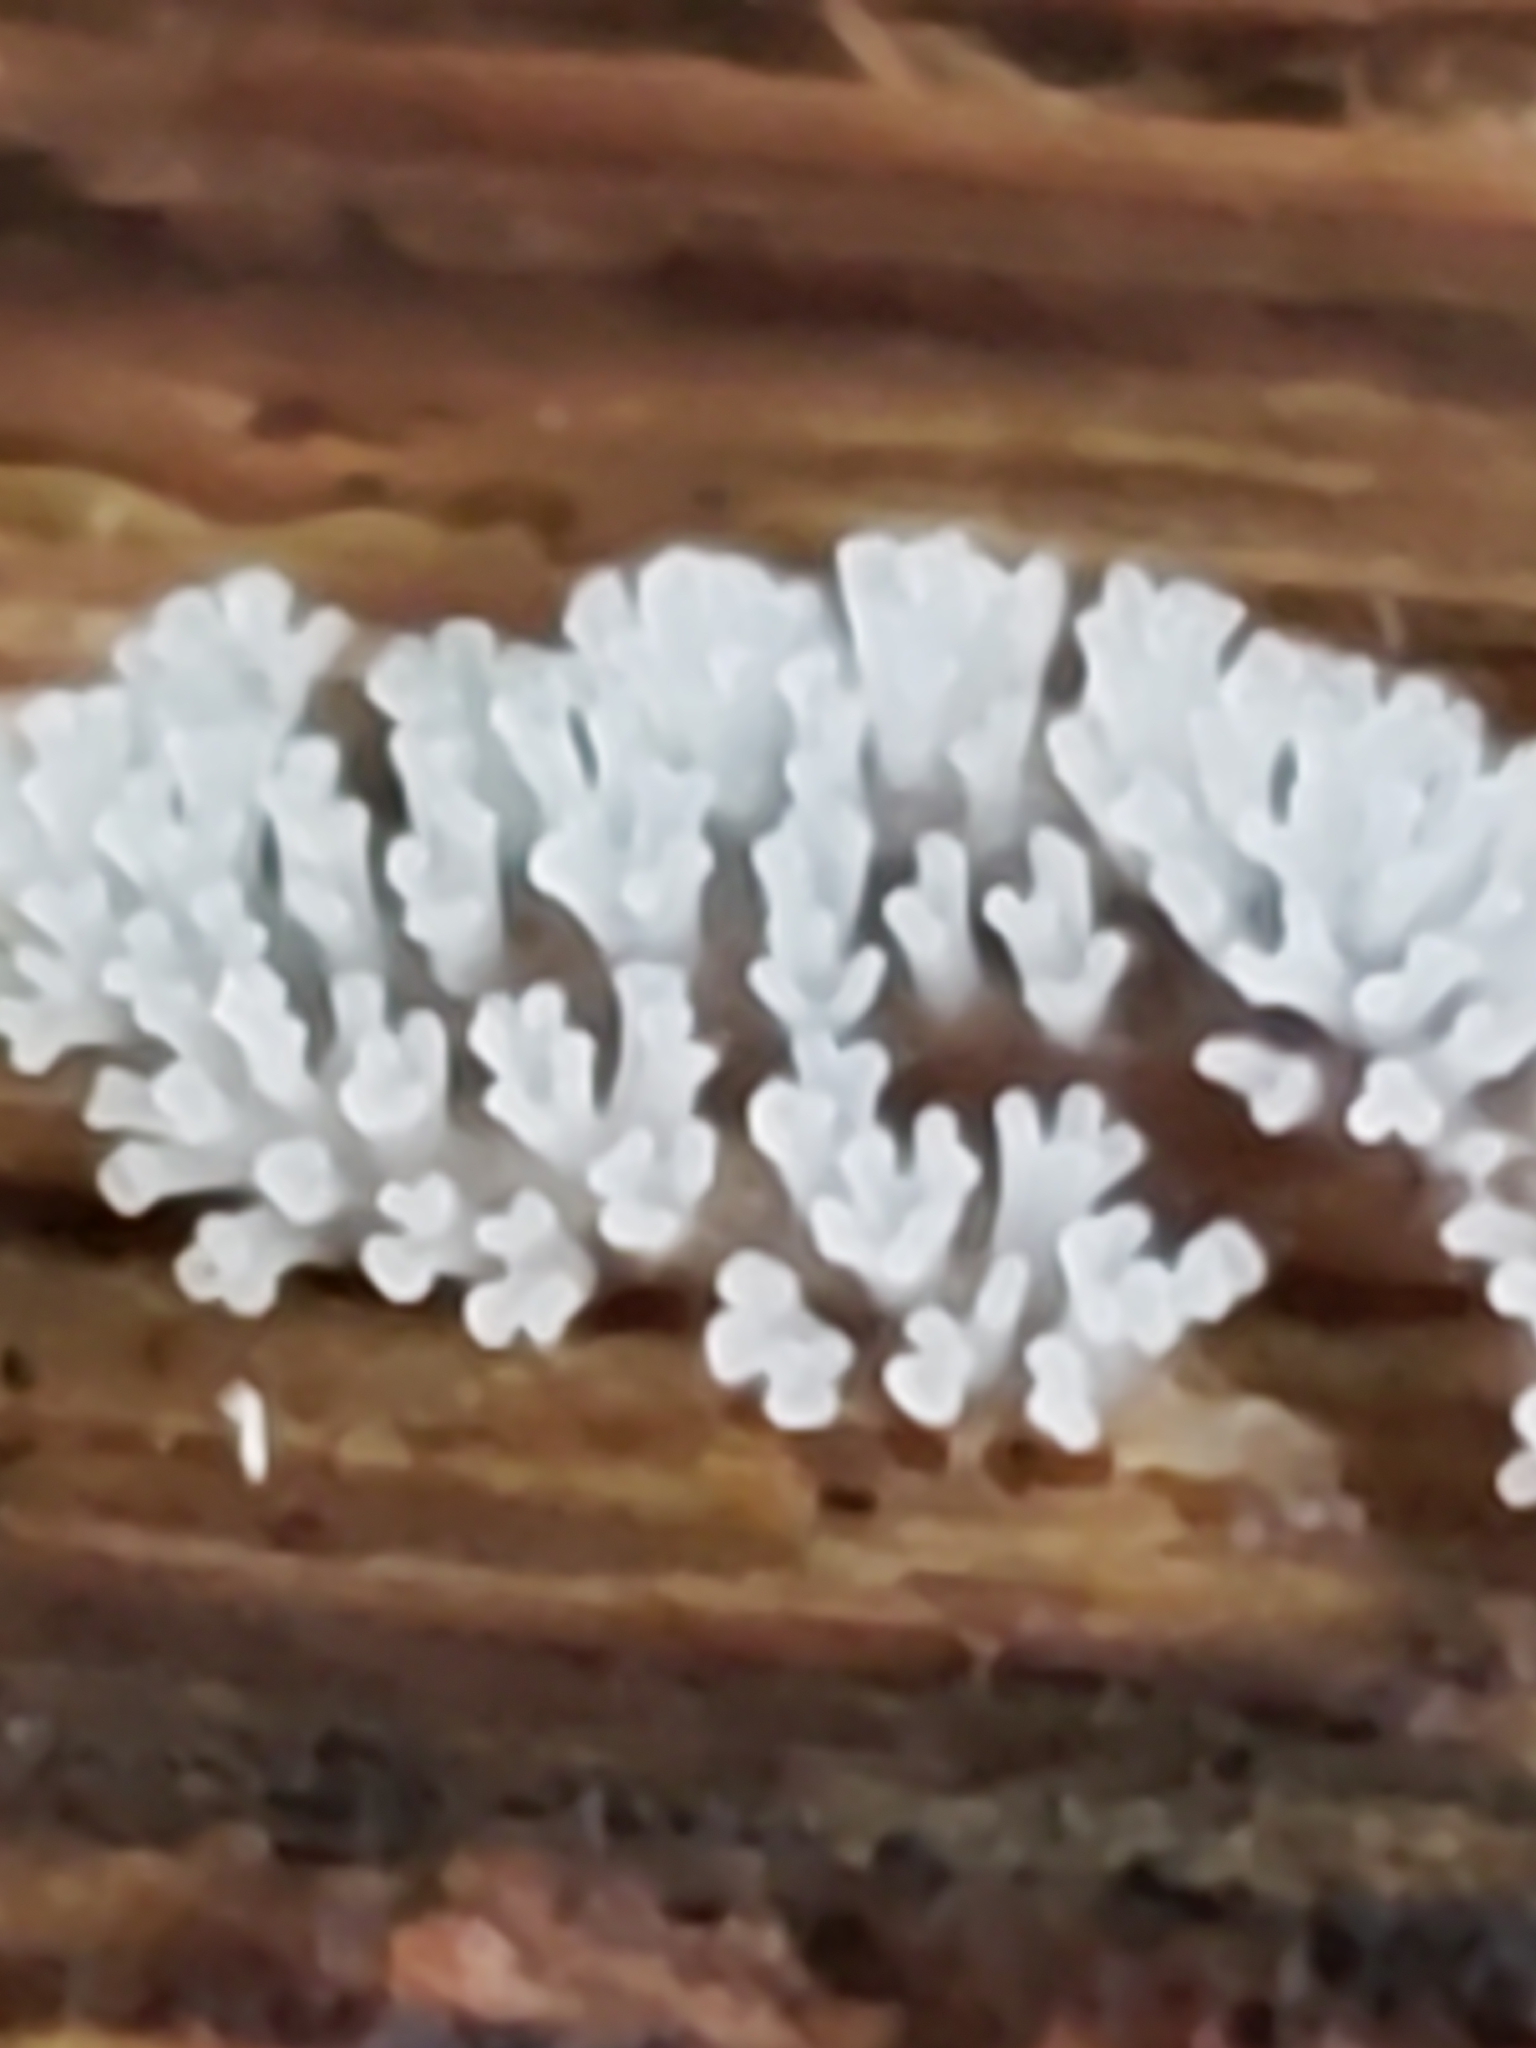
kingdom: Protozoa
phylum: Mycetozoa
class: Protosteliomycetes
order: Ceratiomyxales
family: Ceratiomyxaceae
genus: Ceratiomyxa
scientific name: Ceratiomyxa fruticulosa
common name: Honeycomb coral slime mold
